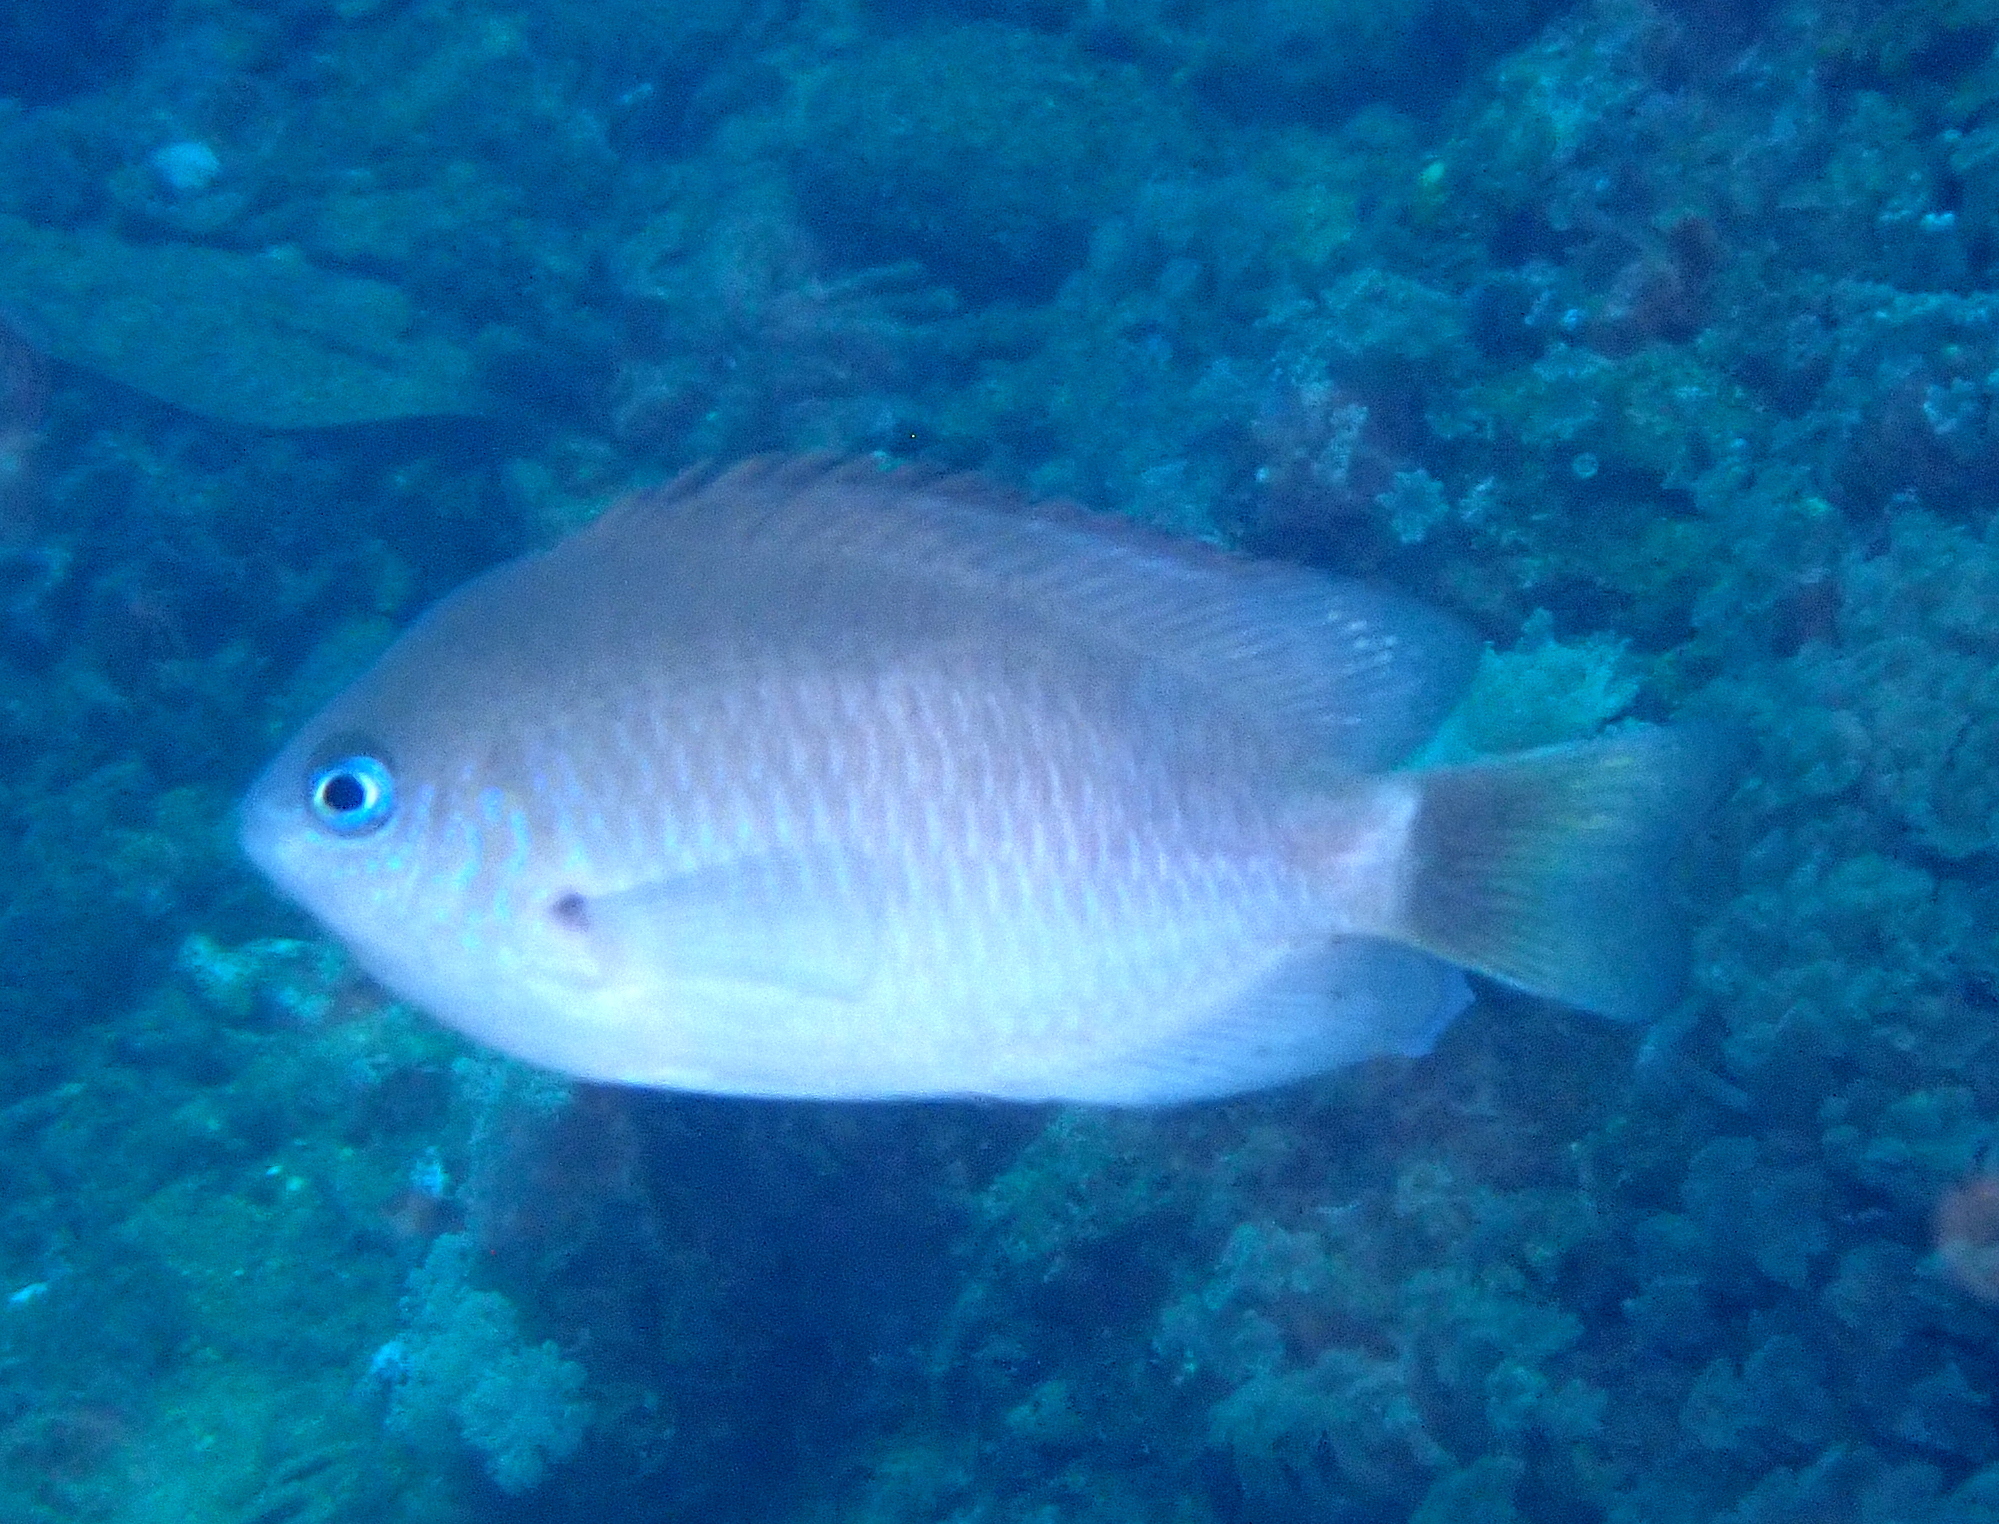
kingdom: Animalia
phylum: Chordata
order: Perciformes
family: Pomacentridae
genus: Pomacentrus
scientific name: Pomacentrus reidi
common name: Reid's damsel
